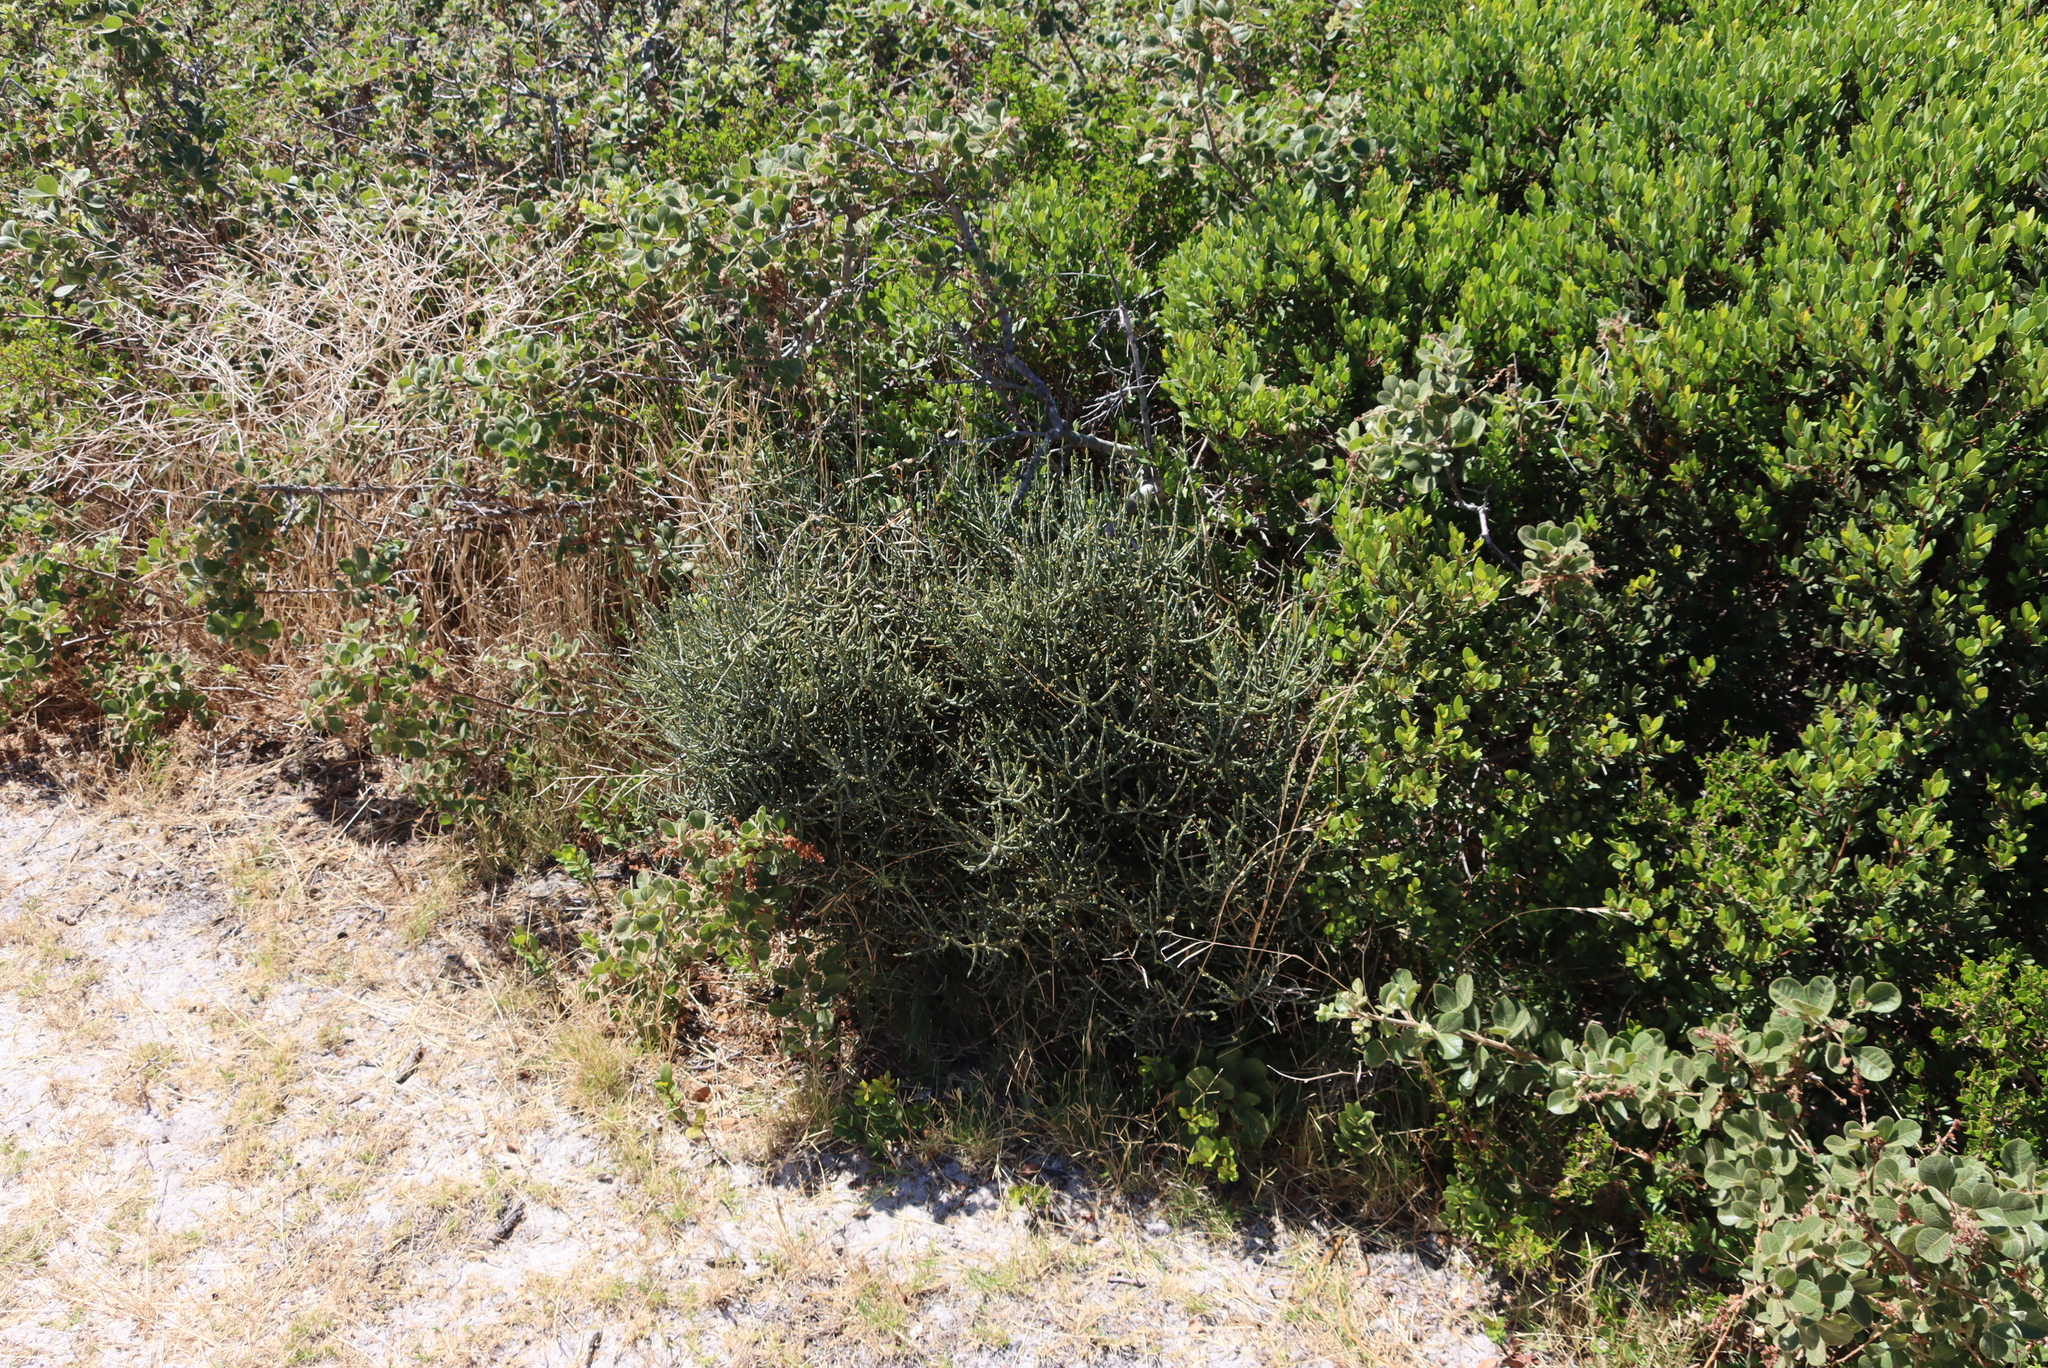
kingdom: Plantae
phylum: Tracheophyta
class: Magnoliopsida
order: Santalales
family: Viscaceae
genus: Viscum
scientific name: Viscum capense
